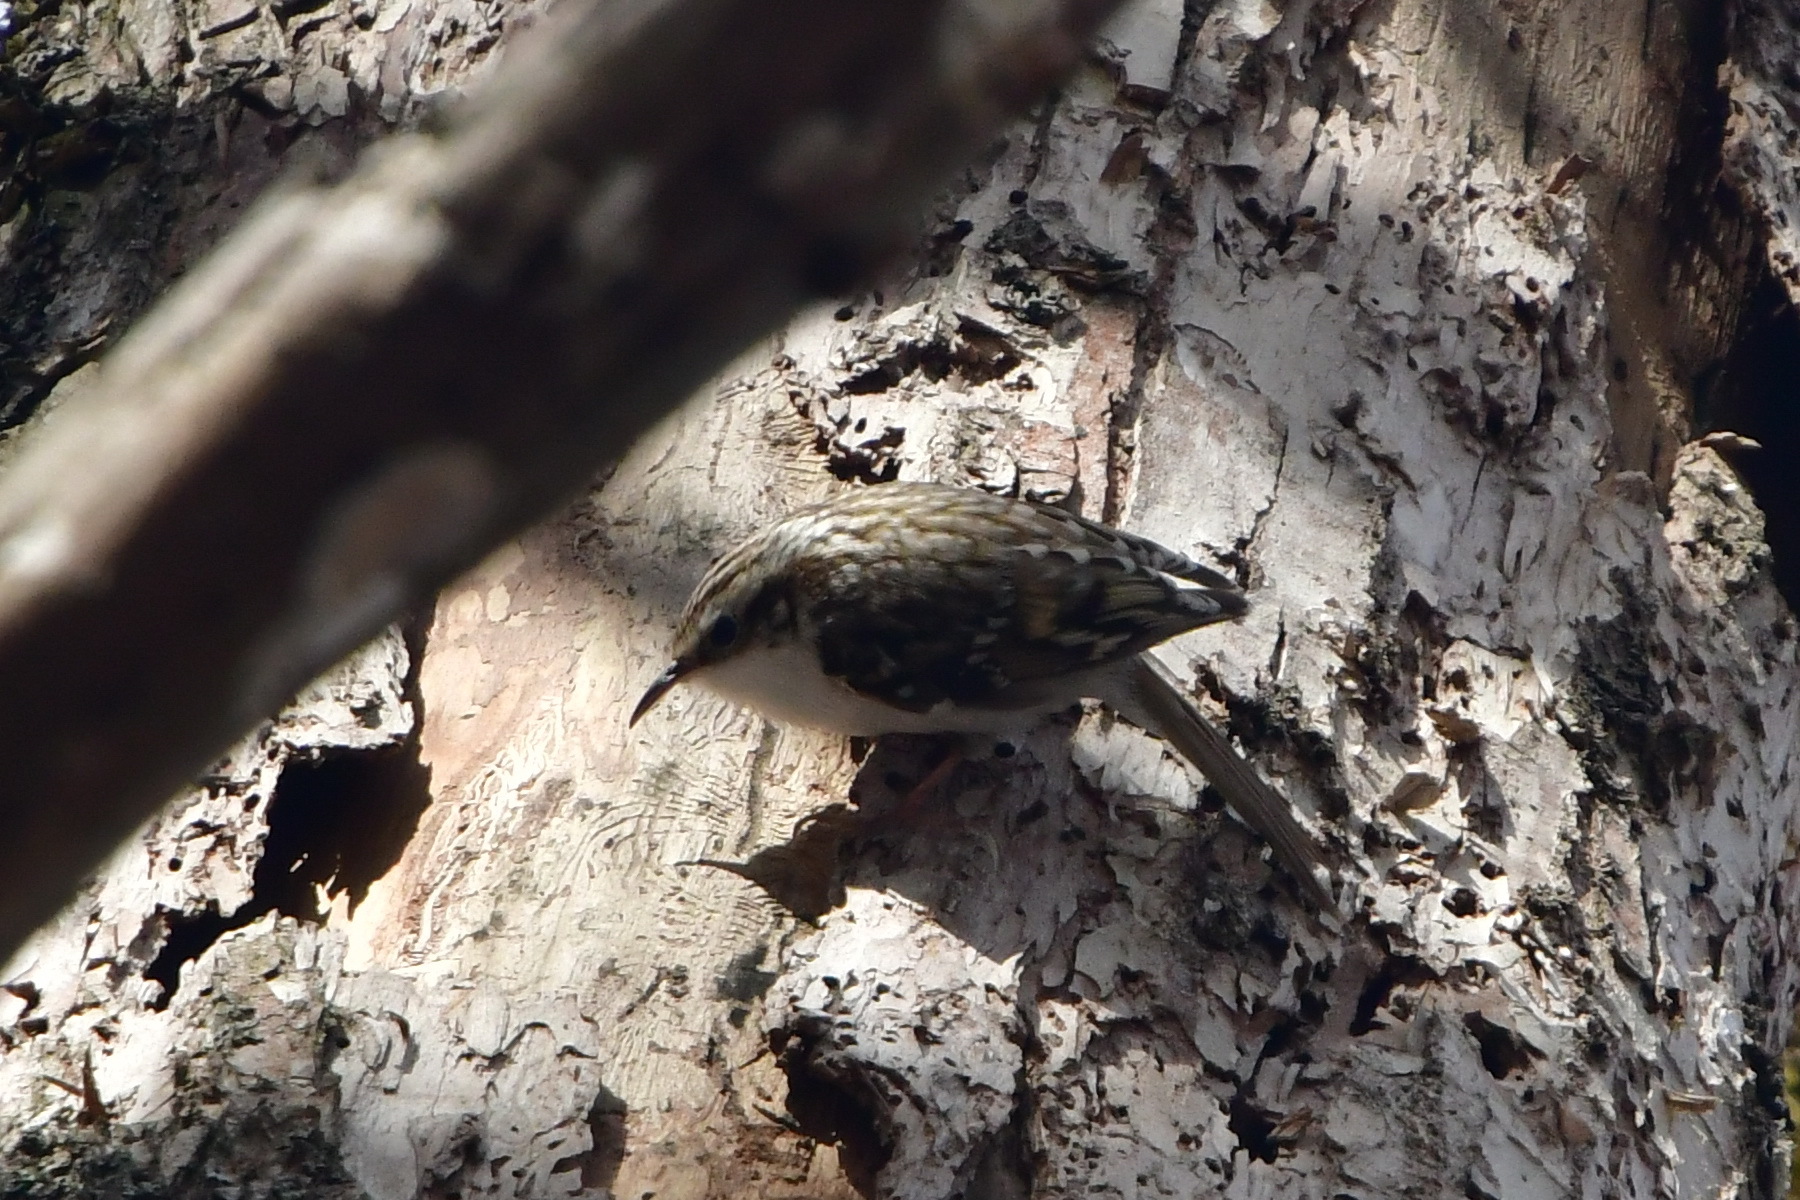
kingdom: Animalia
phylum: Chordata
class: Aves
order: Passeriformes
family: Certhiidae
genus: Certhia
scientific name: Certhia familiaris
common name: Eurasian treecreeper
